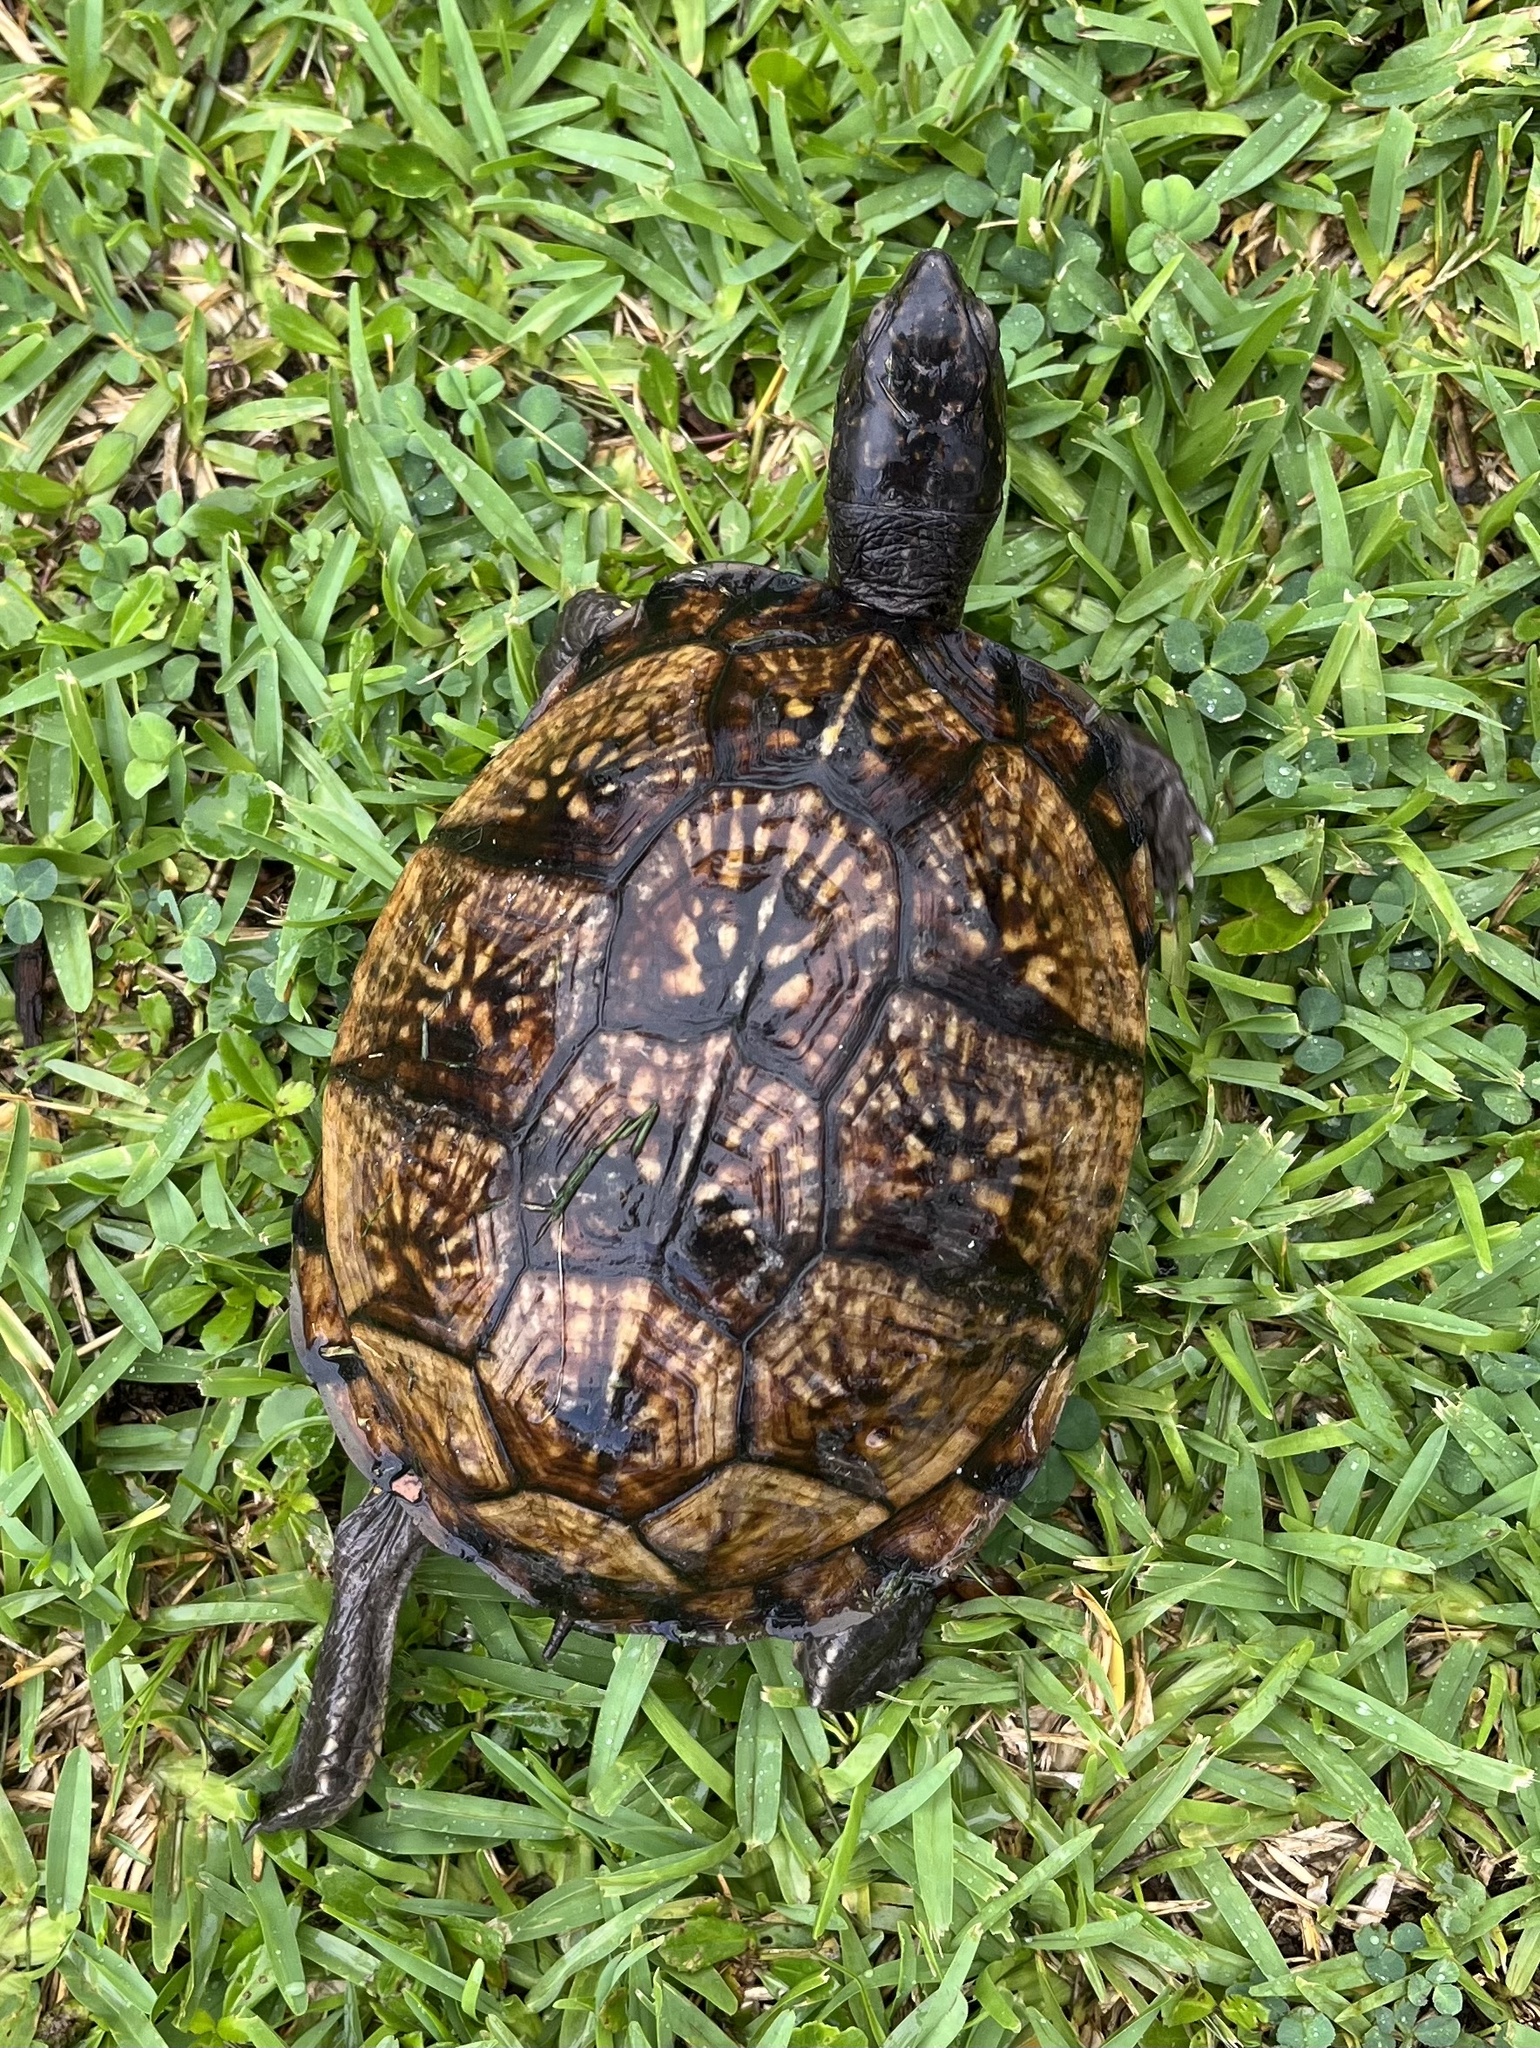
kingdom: Animalia
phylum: Chordata
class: Testudines
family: Emydidae
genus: Terrapene
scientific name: Terrapene carolina
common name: Common box turtle
